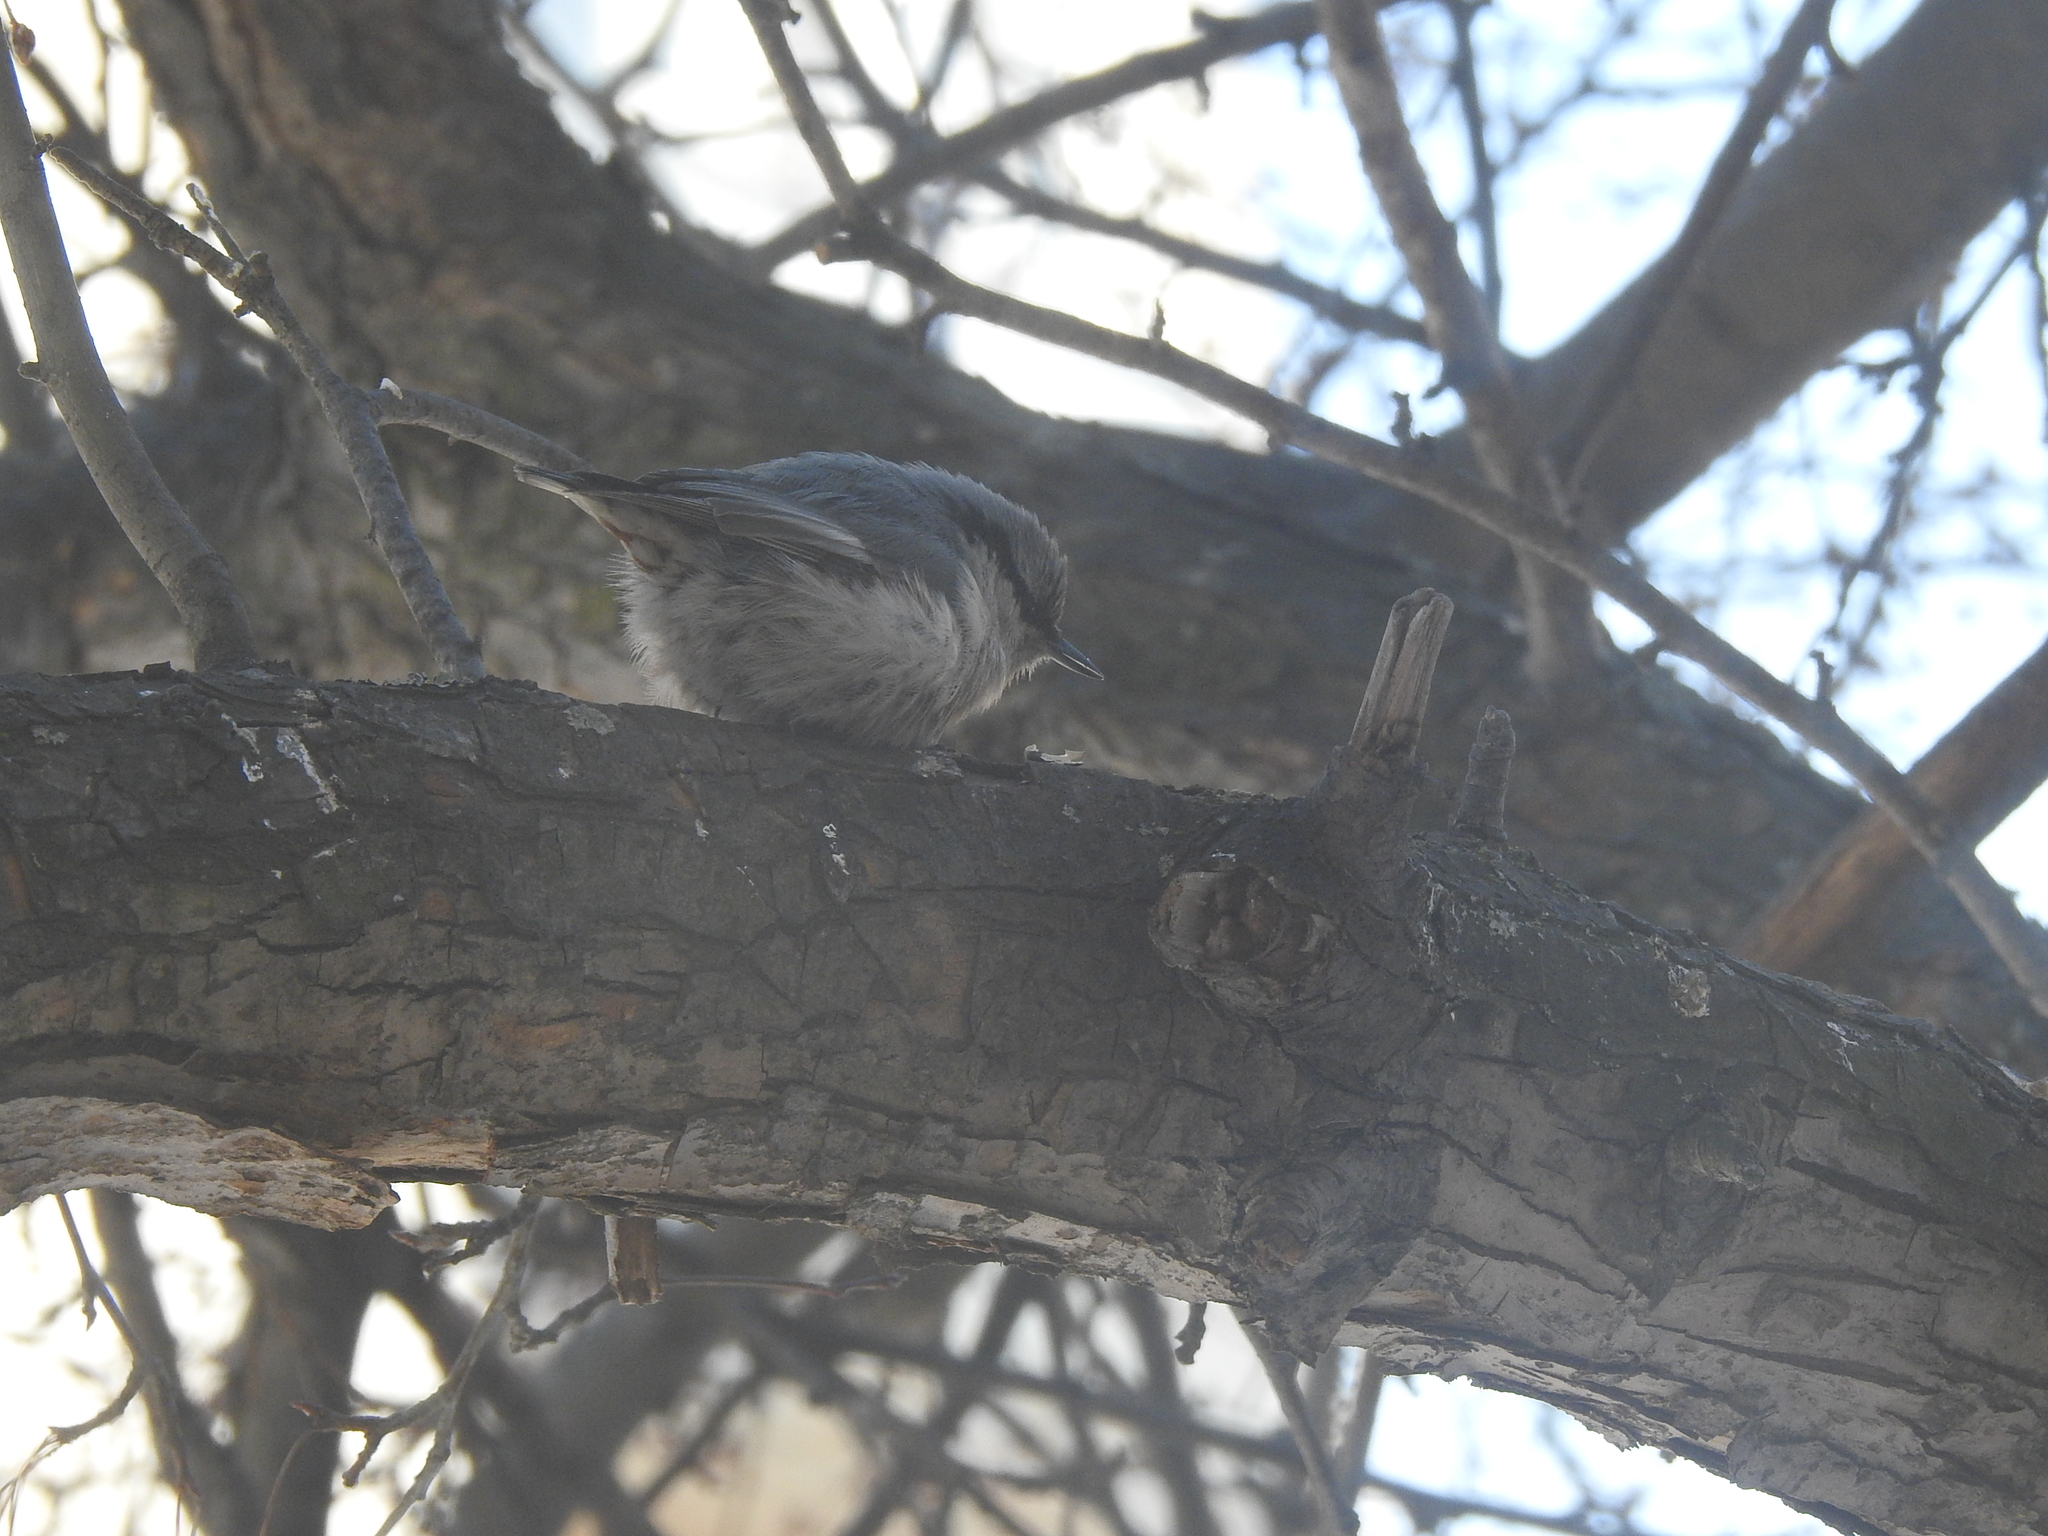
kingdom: Animalia
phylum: Chordata
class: Aves
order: Passeriformes
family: Sittidae
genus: Sitta
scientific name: Sitta europaea
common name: Eurasian nuthatch
